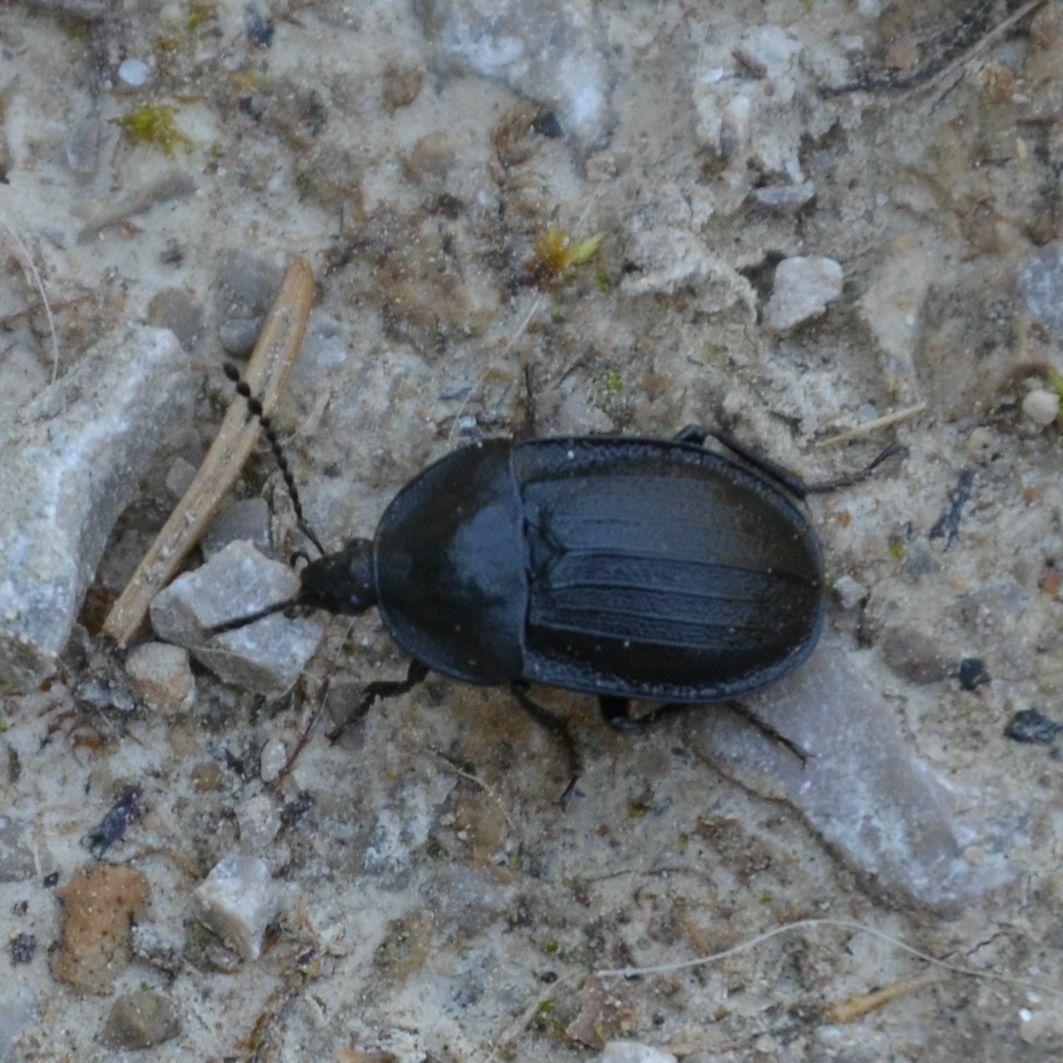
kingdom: Animalia
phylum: Arthropoda
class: Insecta
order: Coleoptera
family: Staphylinidae
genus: Silpha
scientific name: Silpha atrata
